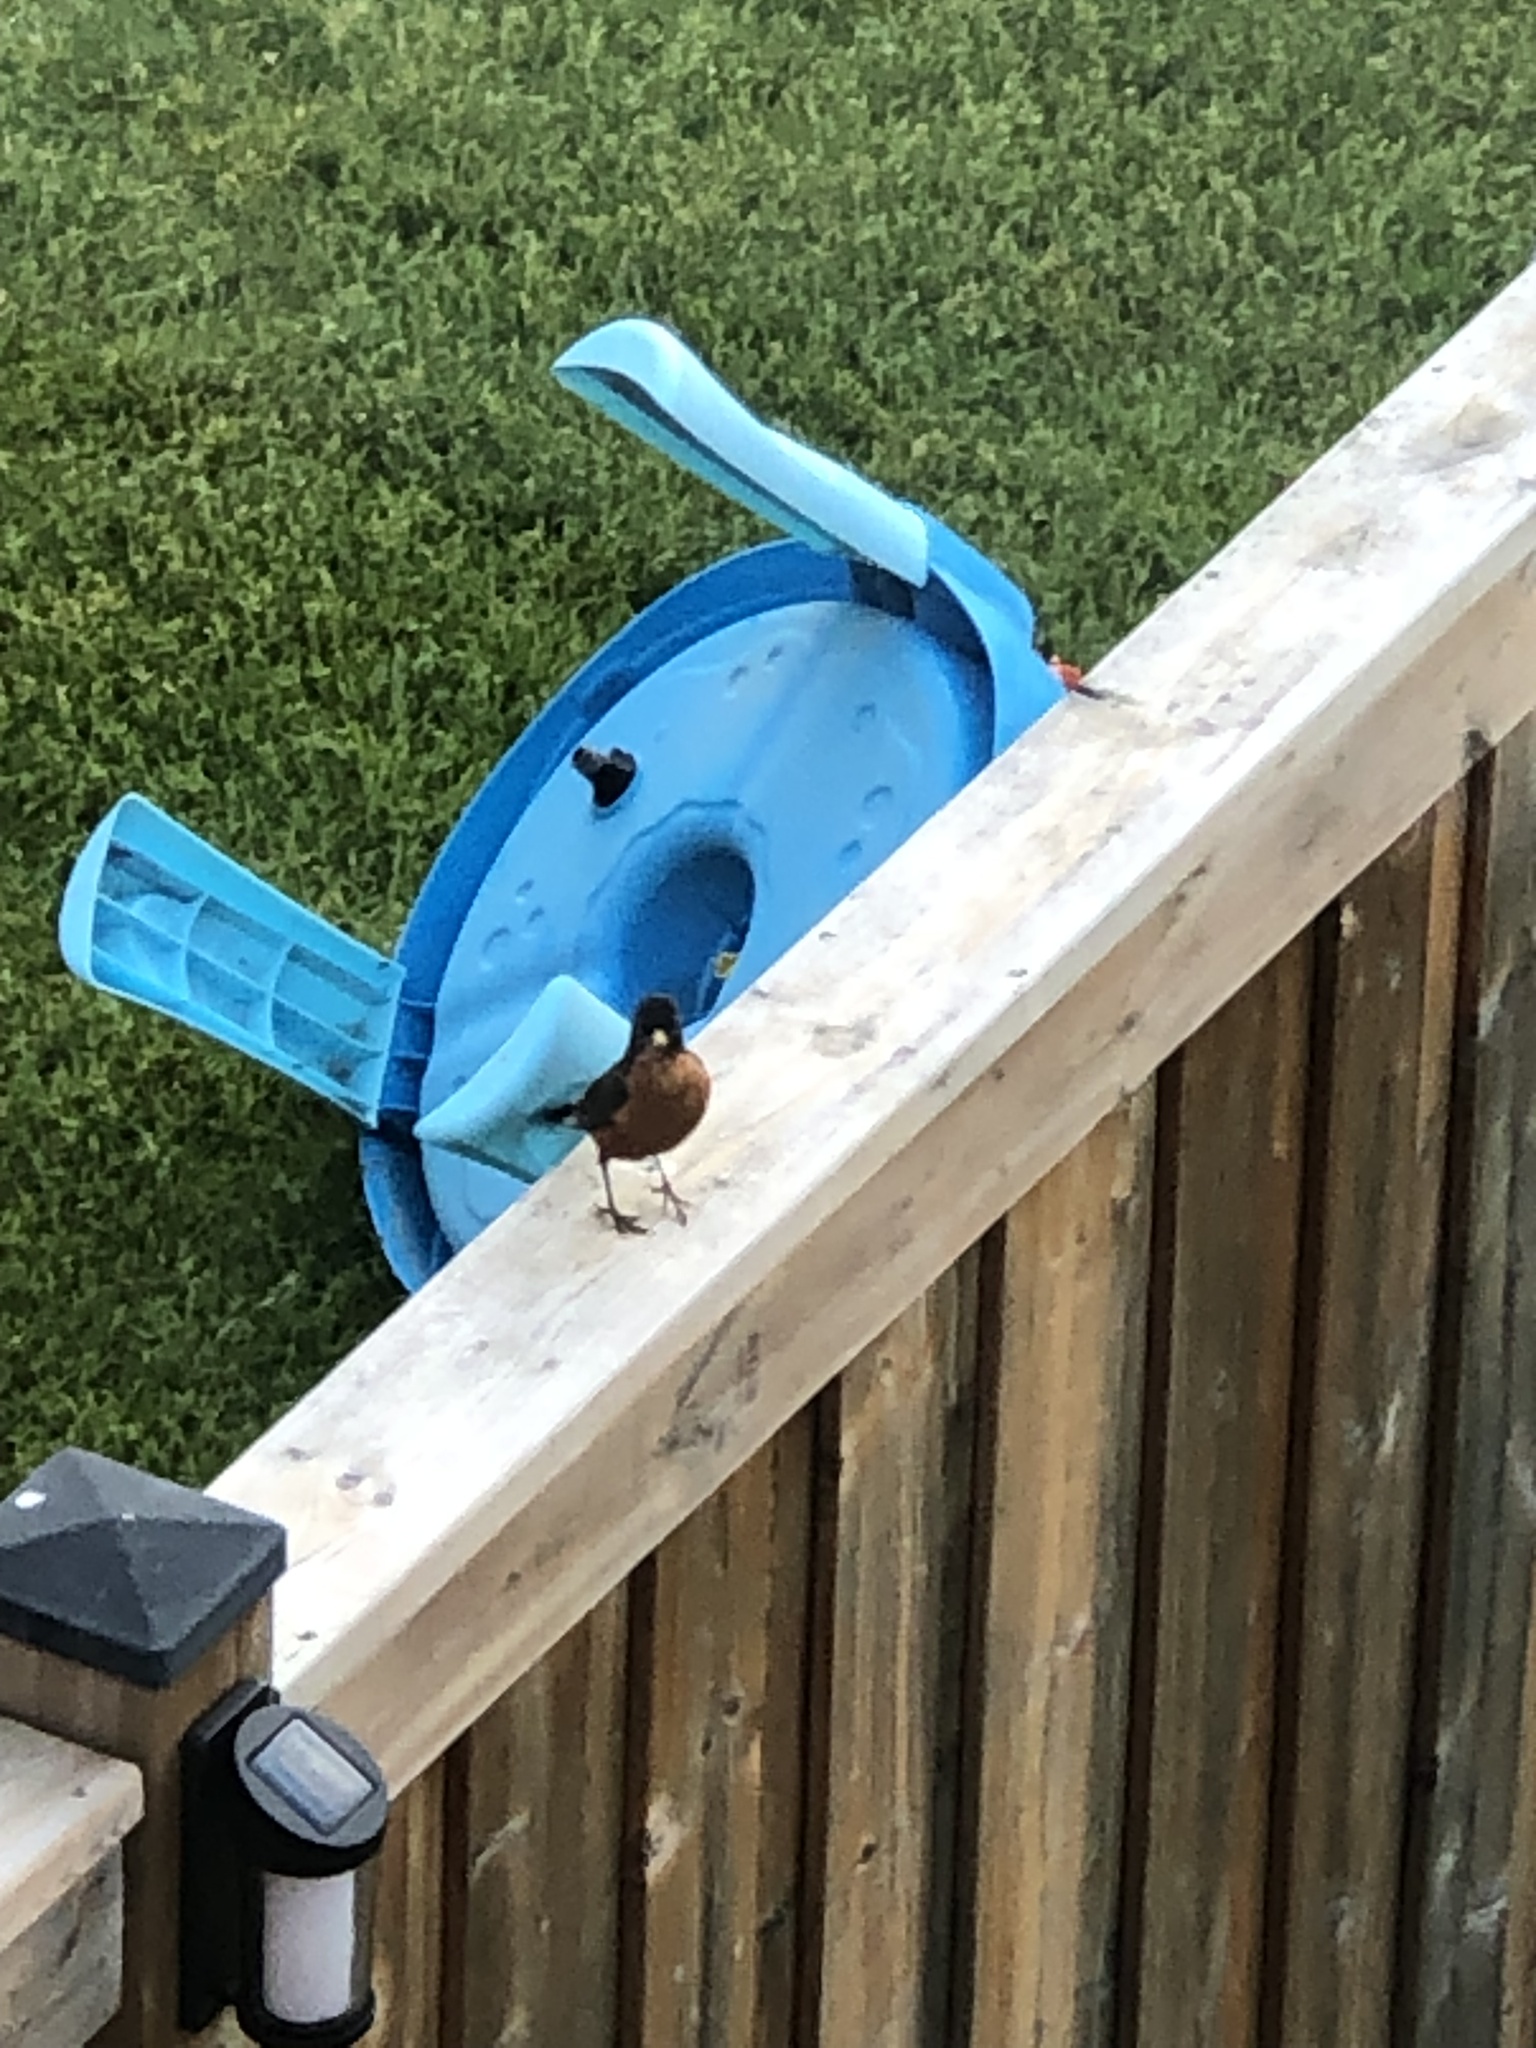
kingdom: Animalia
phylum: Chordata
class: Aves
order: Passeriformes
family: Turdidae
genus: Turdus
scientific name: Turdus migratorius
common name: American robin
